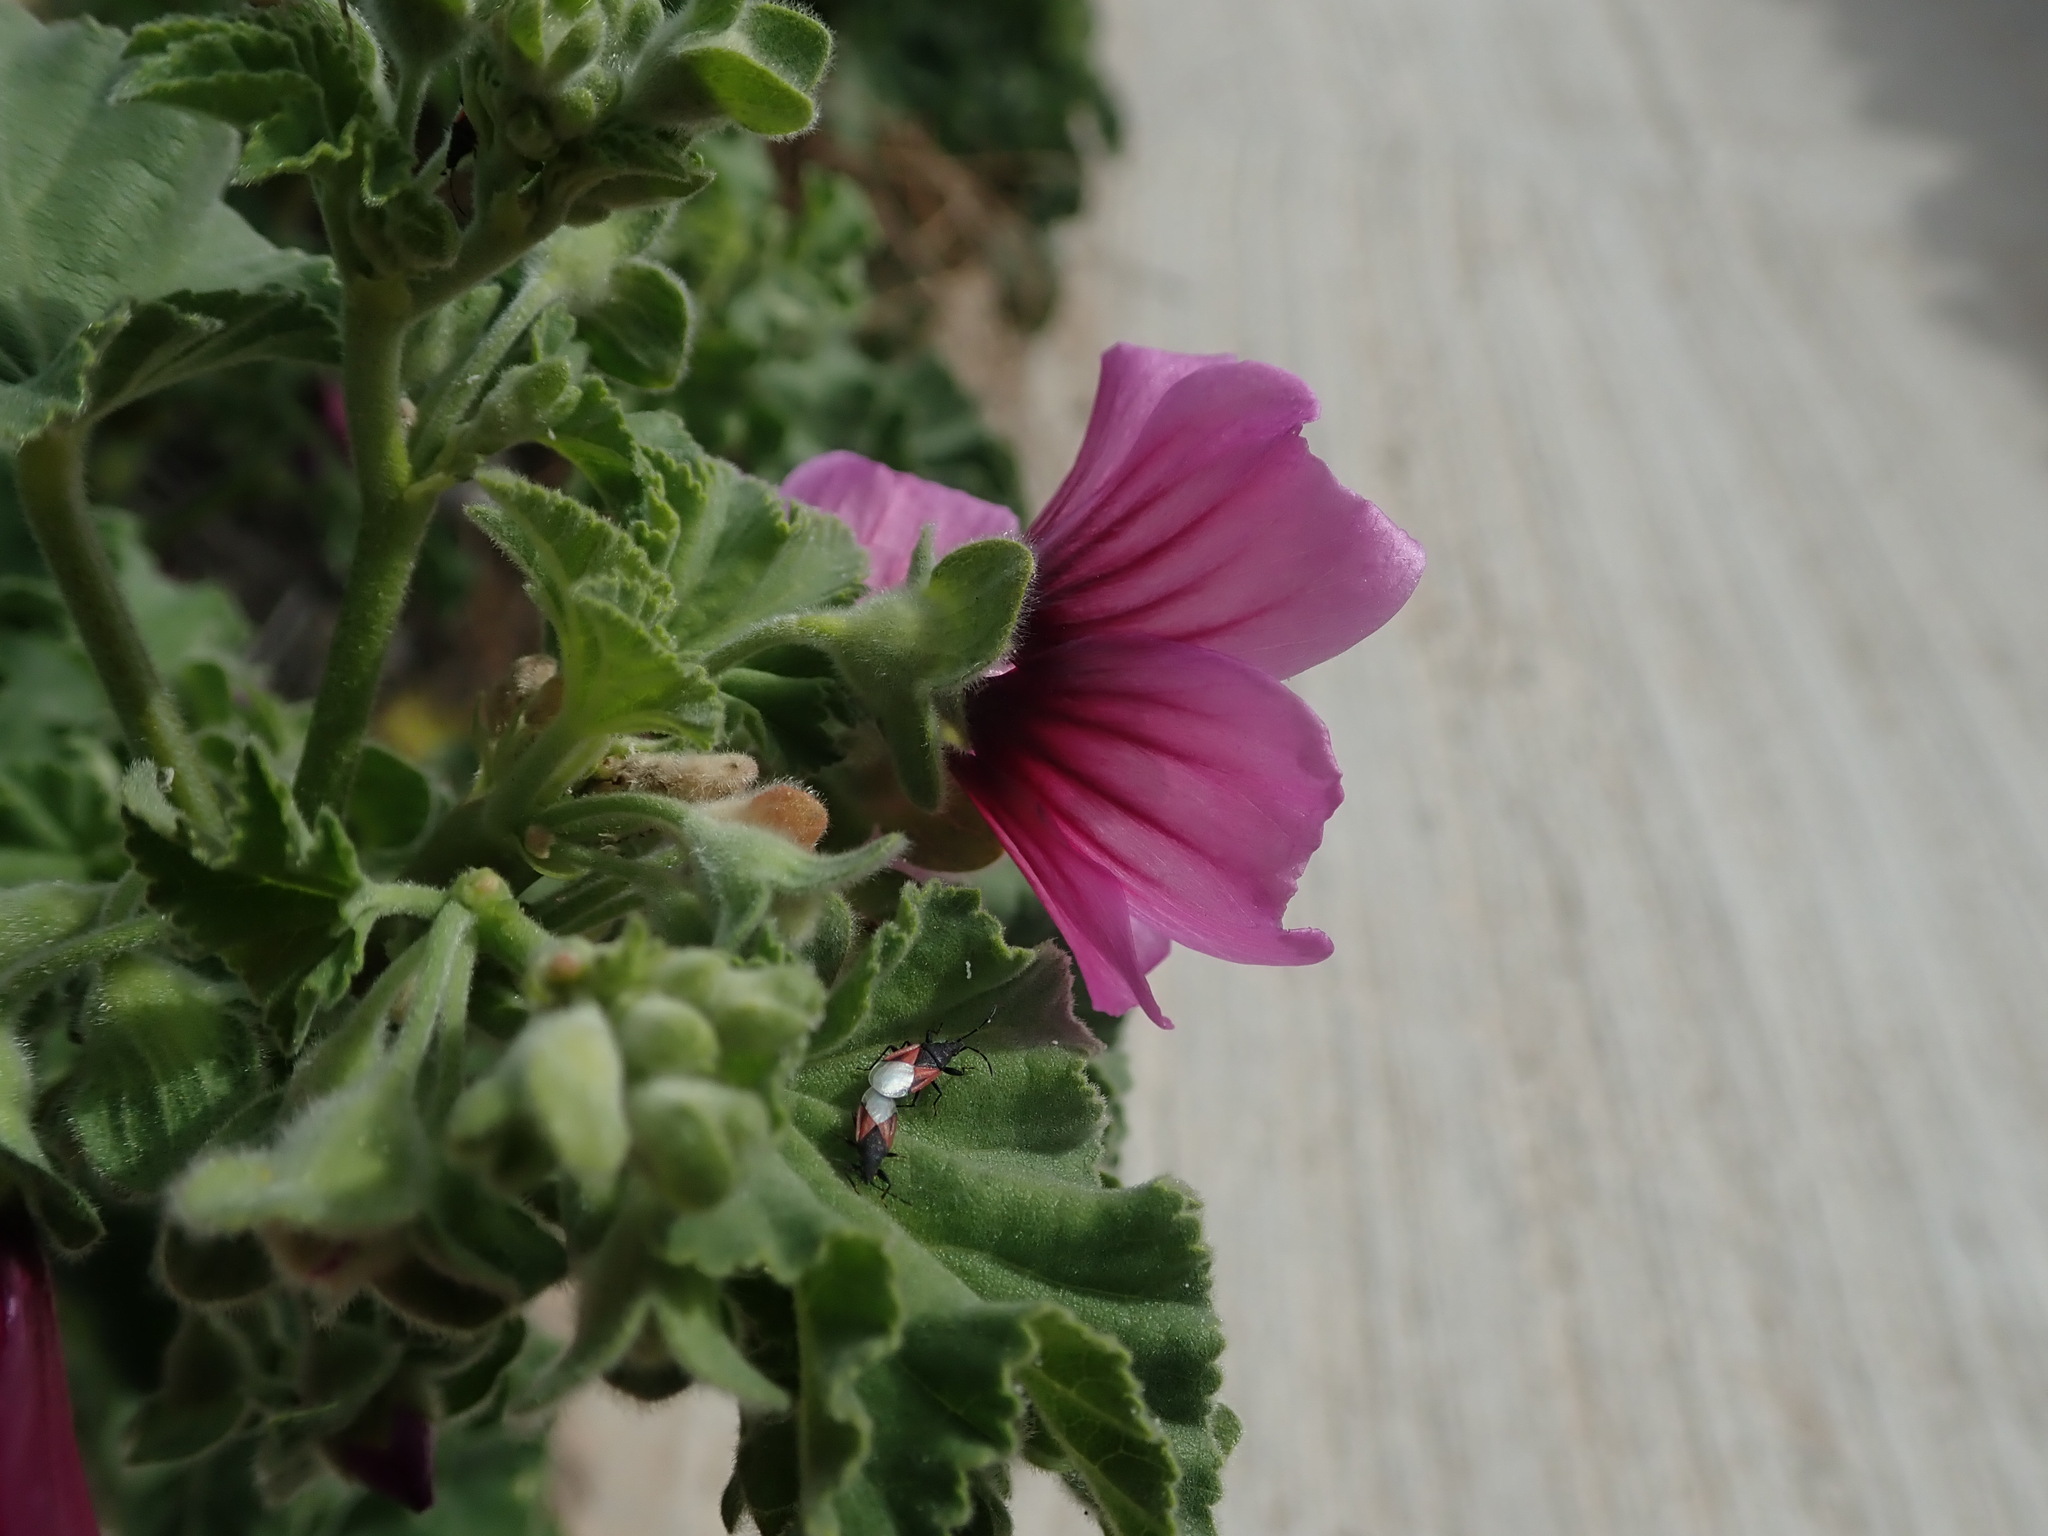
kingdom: Plantae
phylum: Tracheophyta
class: Magnoliopsida
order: Malvales
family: Malvaceae
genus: Malva
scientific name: Malva arborea
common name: Tree mallow
